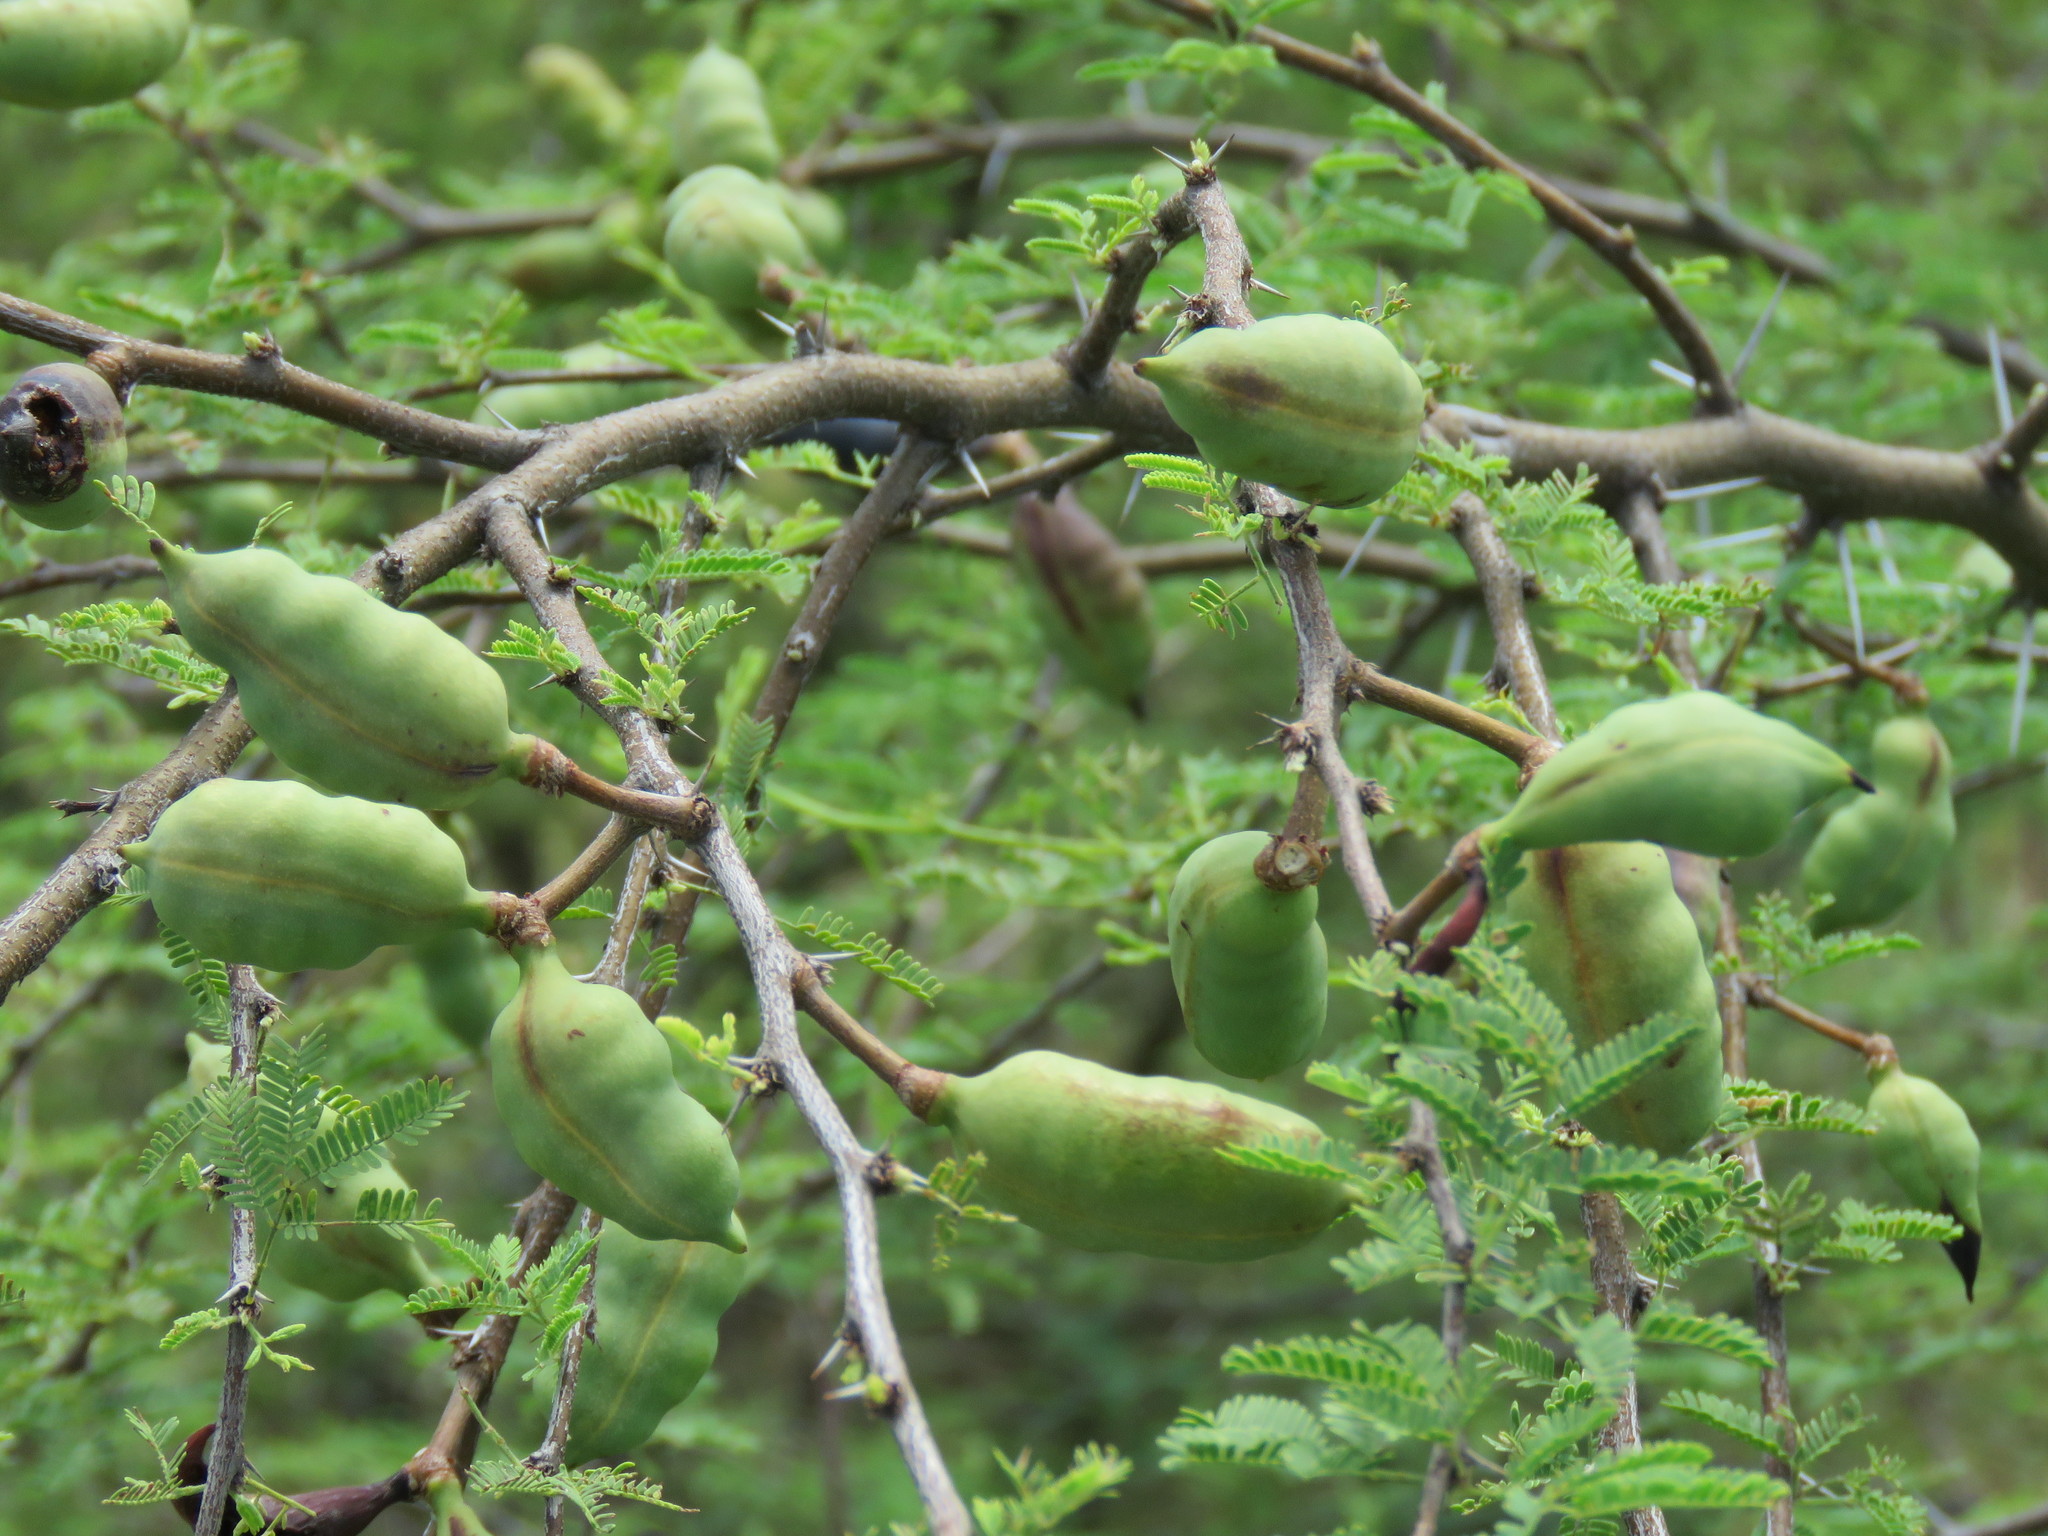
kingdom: Plantae
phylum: Tracheophyta
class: Magnoliopsida
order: Fabales
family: Fabaceae
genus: Vachellia
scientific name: Vachellia farnesiana
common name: Sweet acacia
